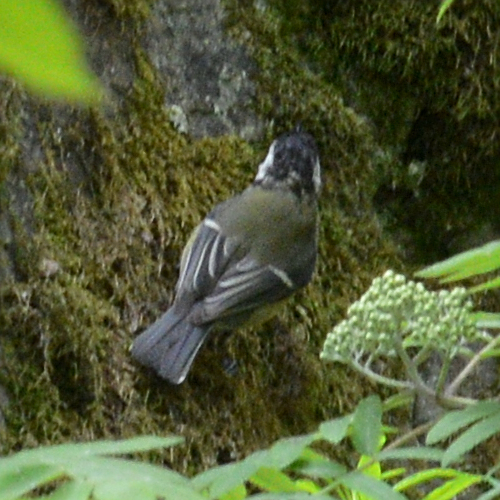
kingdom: Animalia
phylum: Chordata
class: Aves
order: Passeriformes
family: Paridae
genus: Parus
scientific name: Parus major
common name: Great tit
